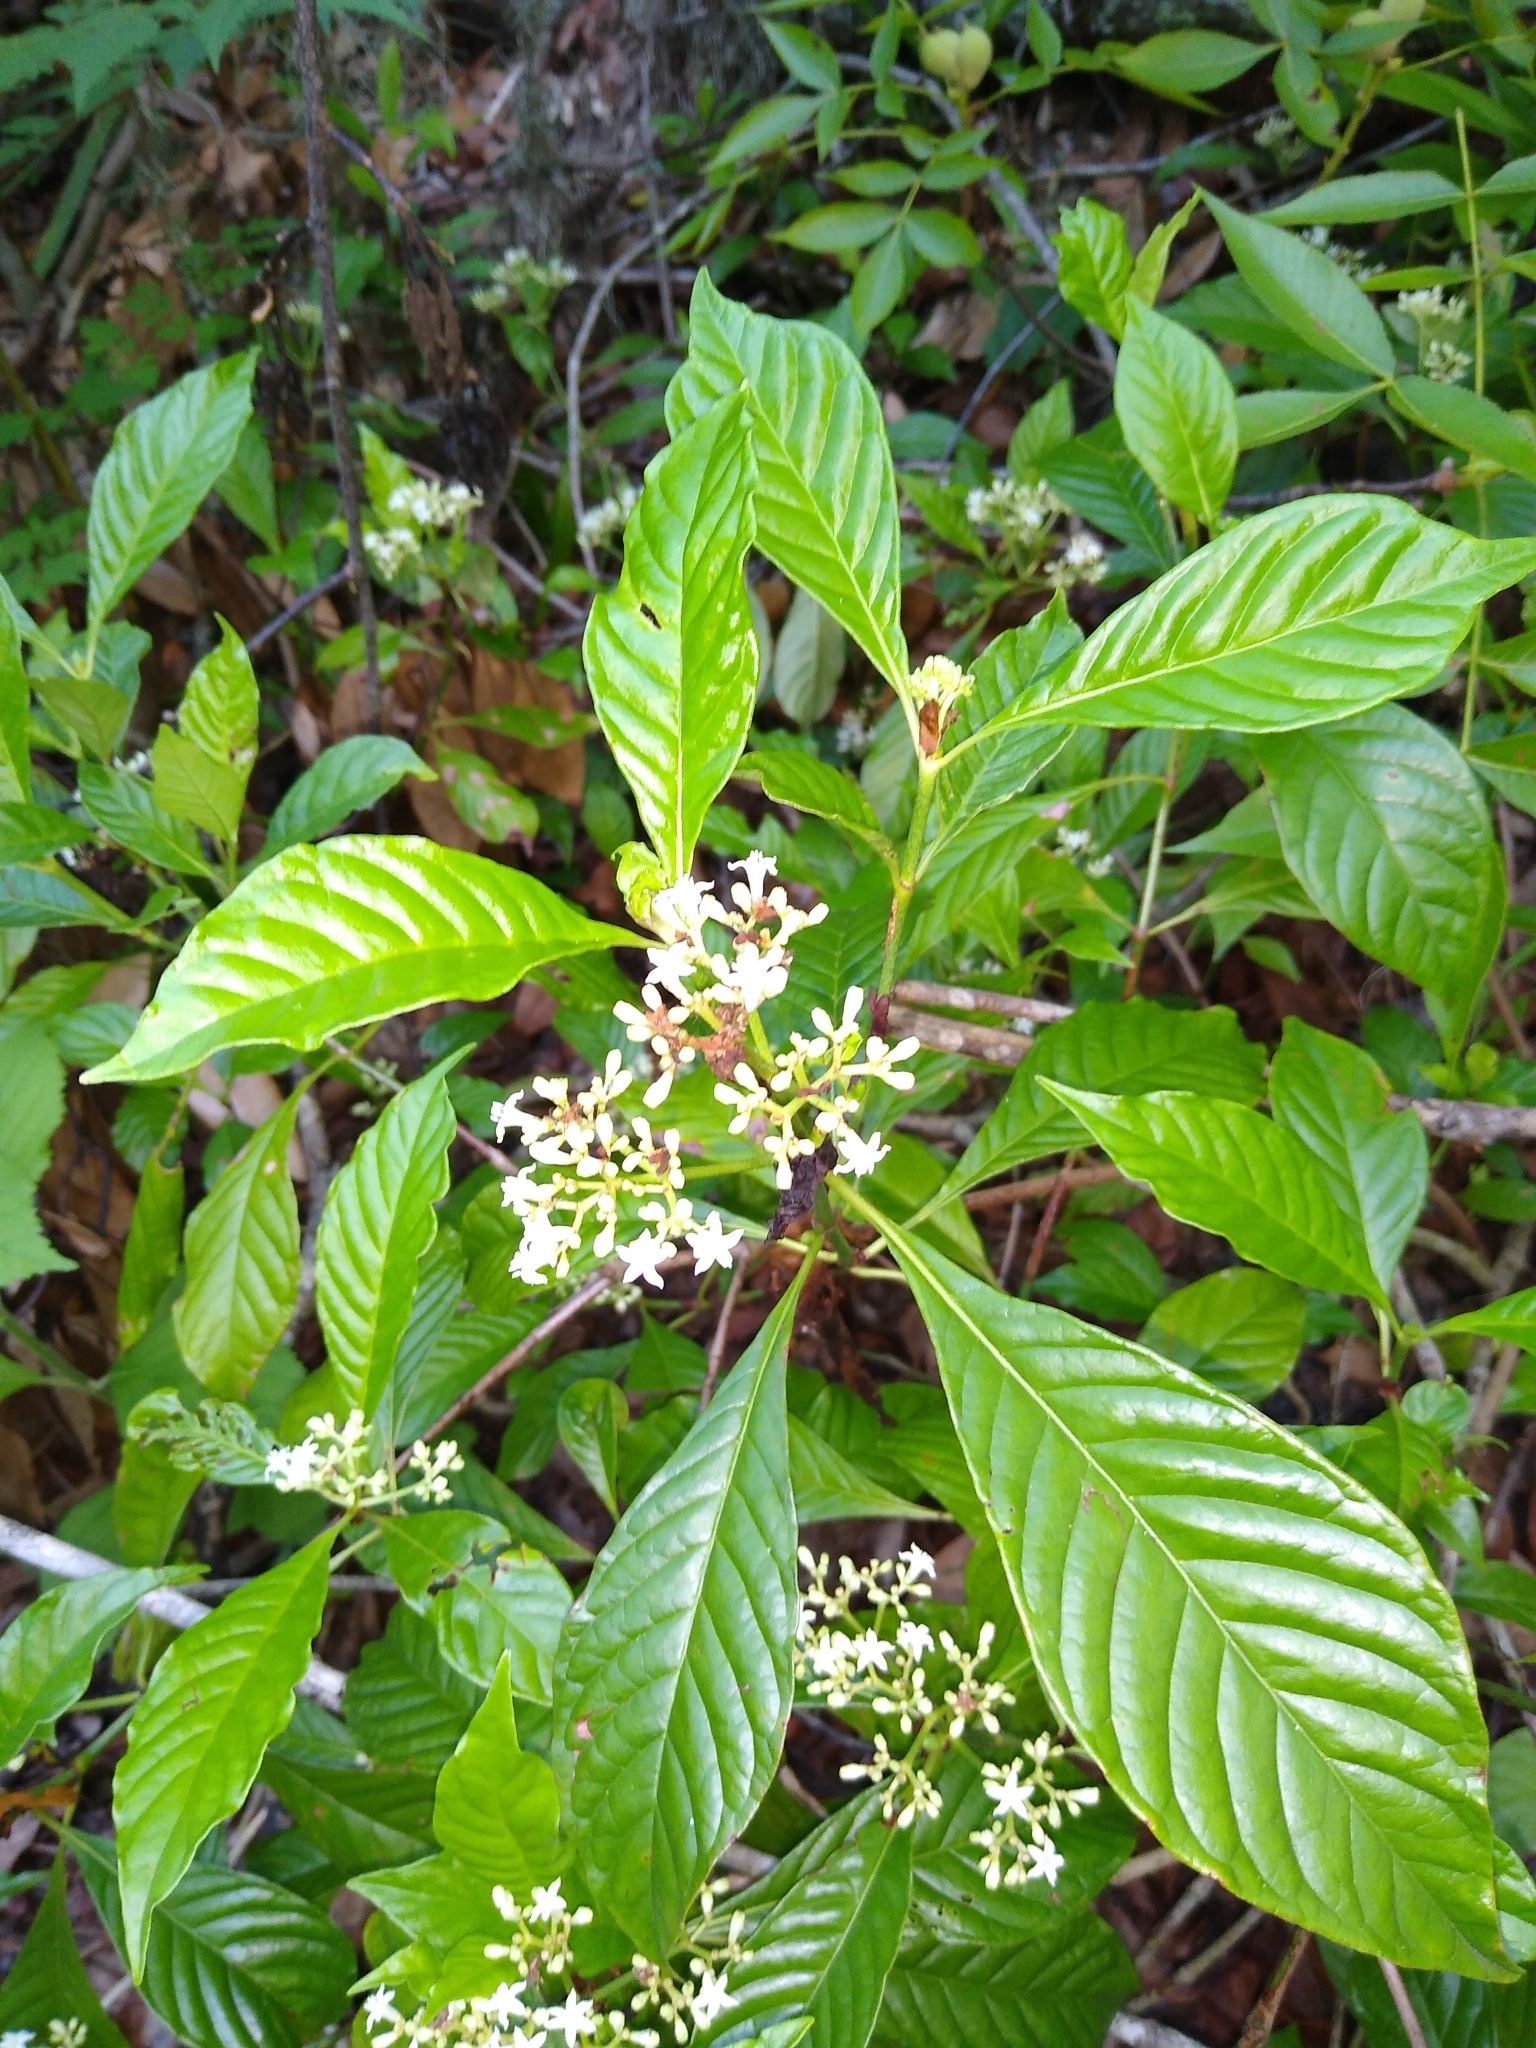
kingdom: Plantae
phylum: Tracheophyta
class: Magnoliopsida
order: Gentianales
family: Rubiaceae
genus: Psychotria
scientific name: Psychotria nervosa
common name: Bastard cankerberry
